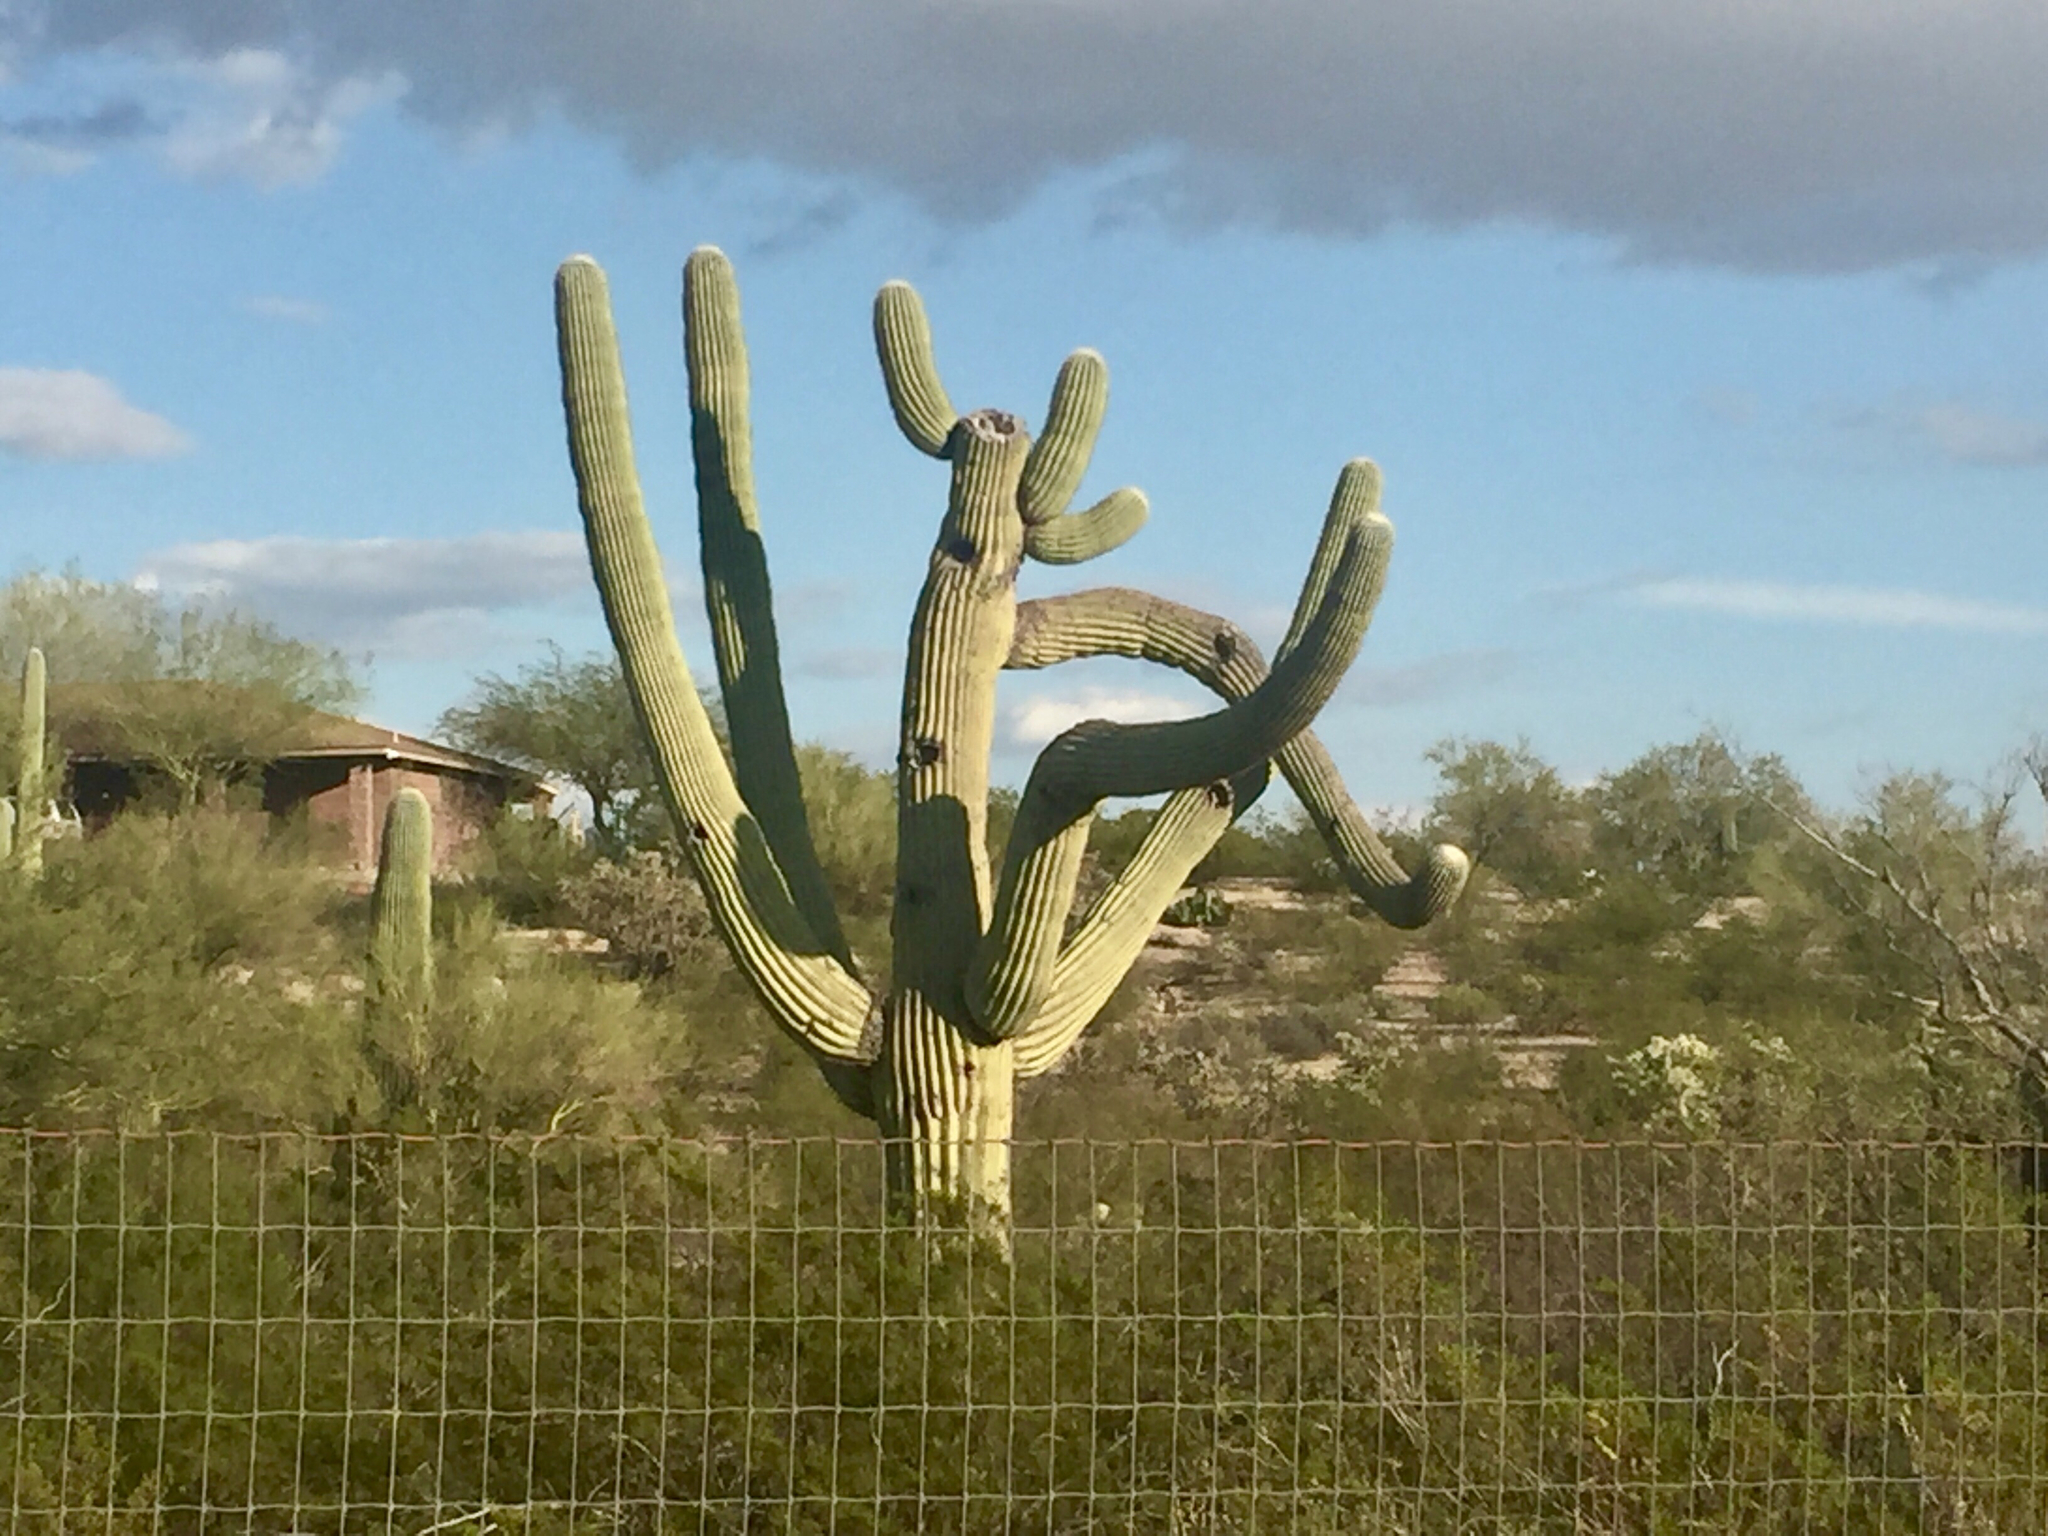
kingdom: Plantae
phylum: Tracheophyta
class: Magnoliopsida
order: Caryophyllales
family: Cactaceae
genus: Carnegiea
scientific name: Carnegiea gigantea
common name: Saguaro
